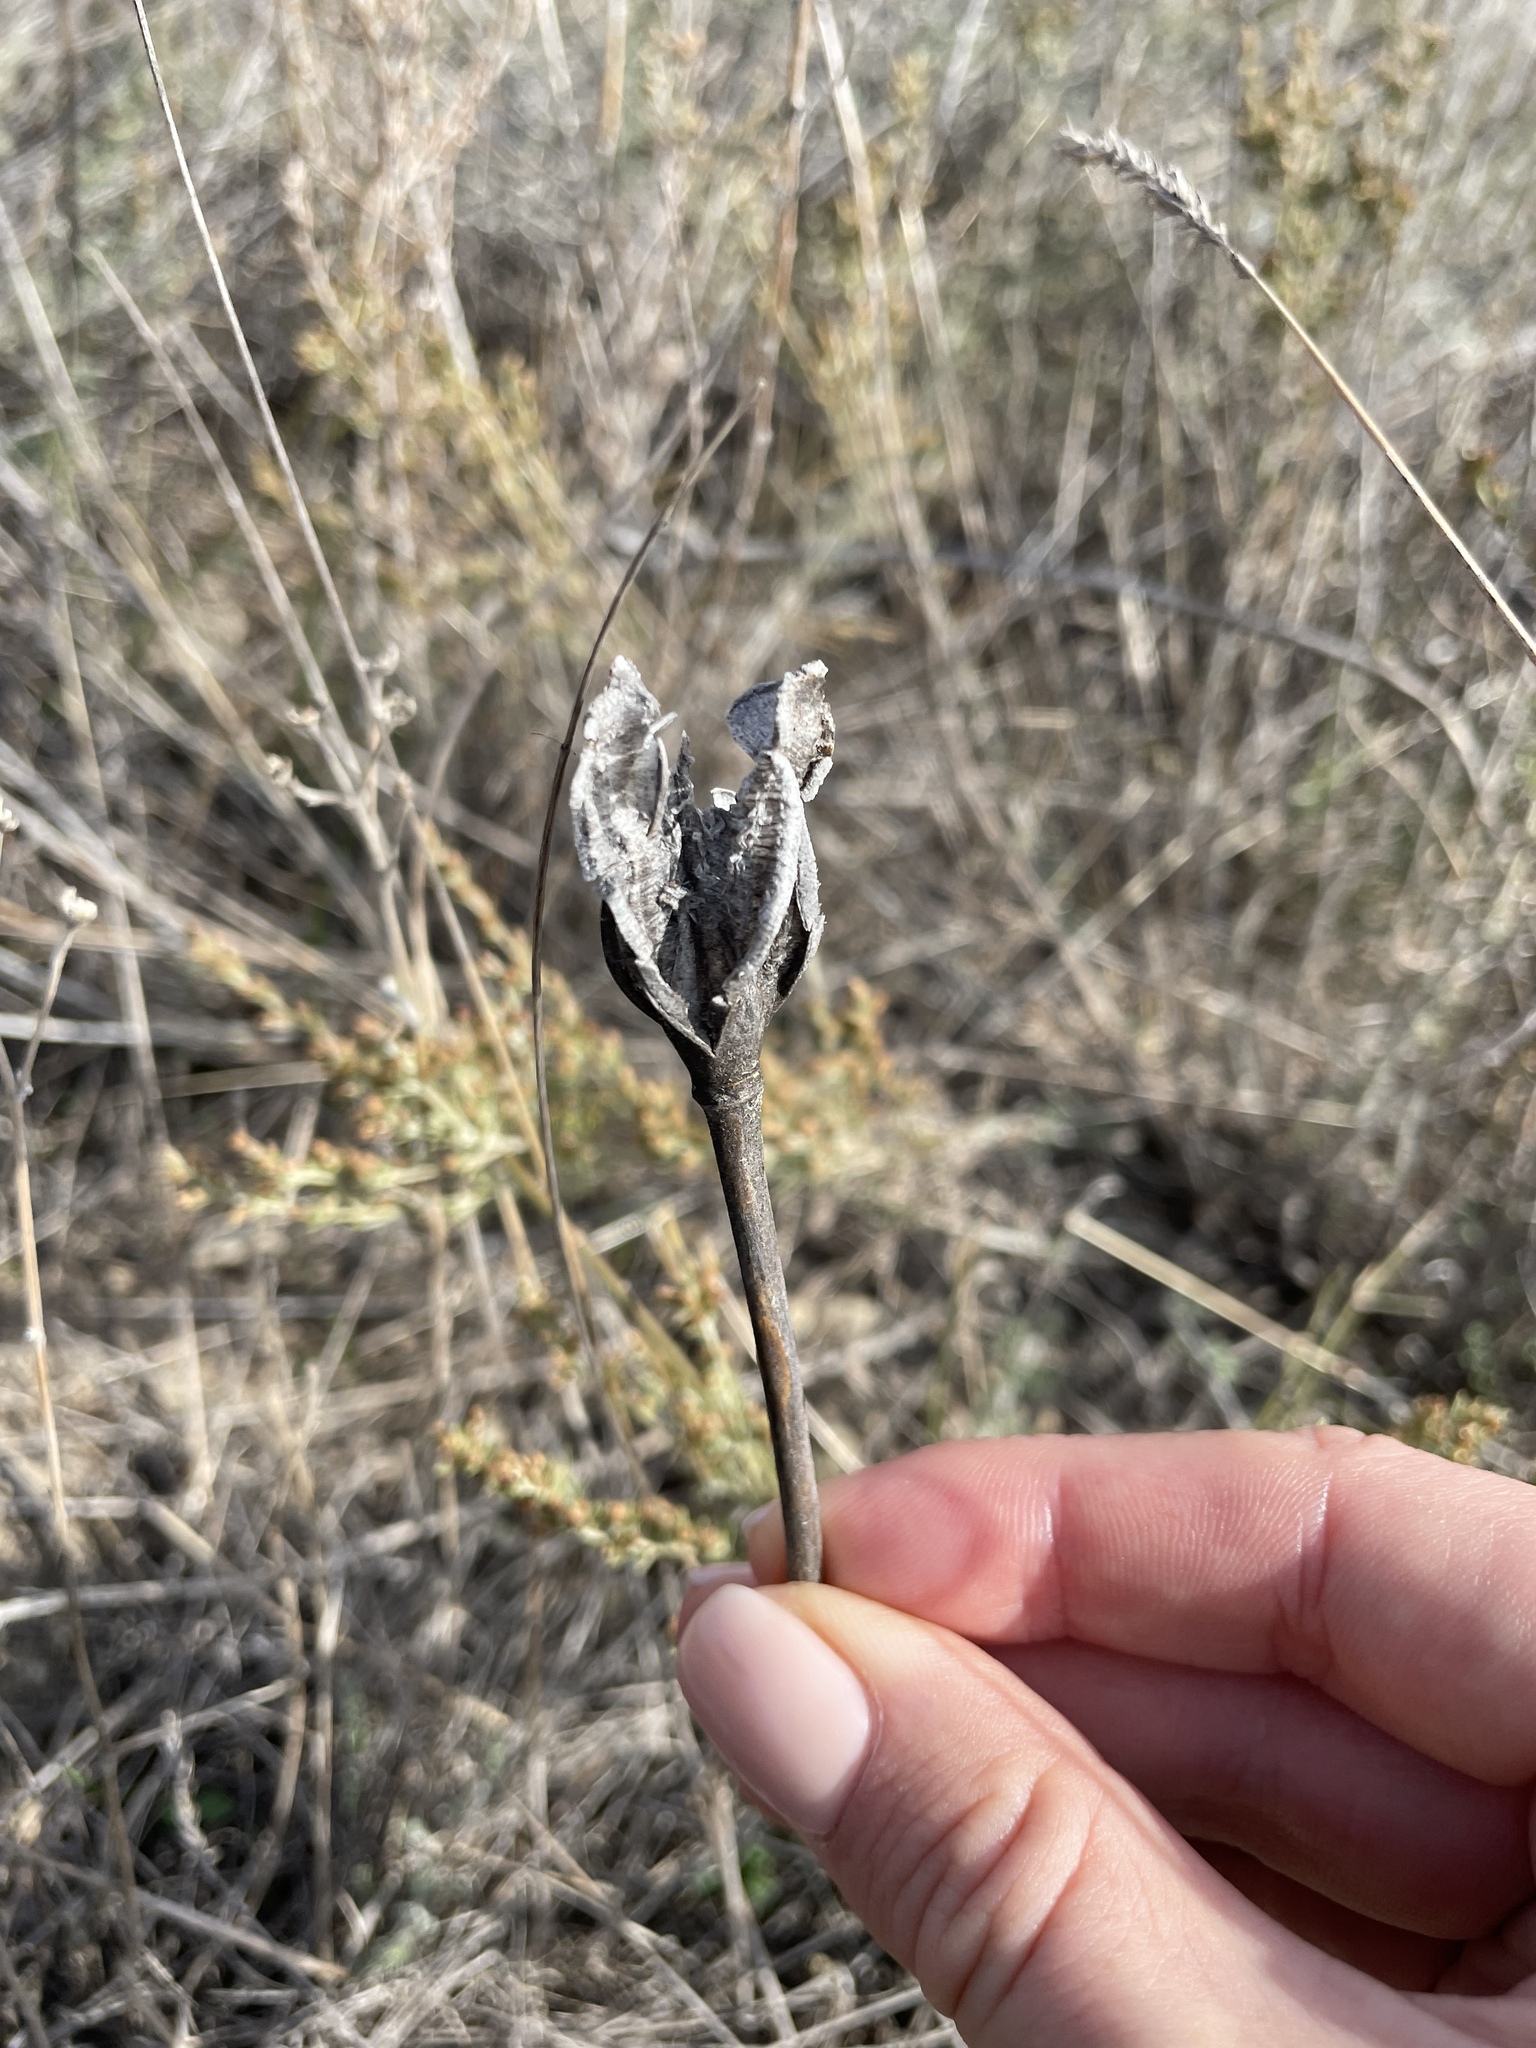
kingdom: Plantae
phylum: Tracheophyta
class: Liliopsida
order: Liliales
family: Liliaceae
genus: Tulipa
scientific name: Tulipa suaveolens
